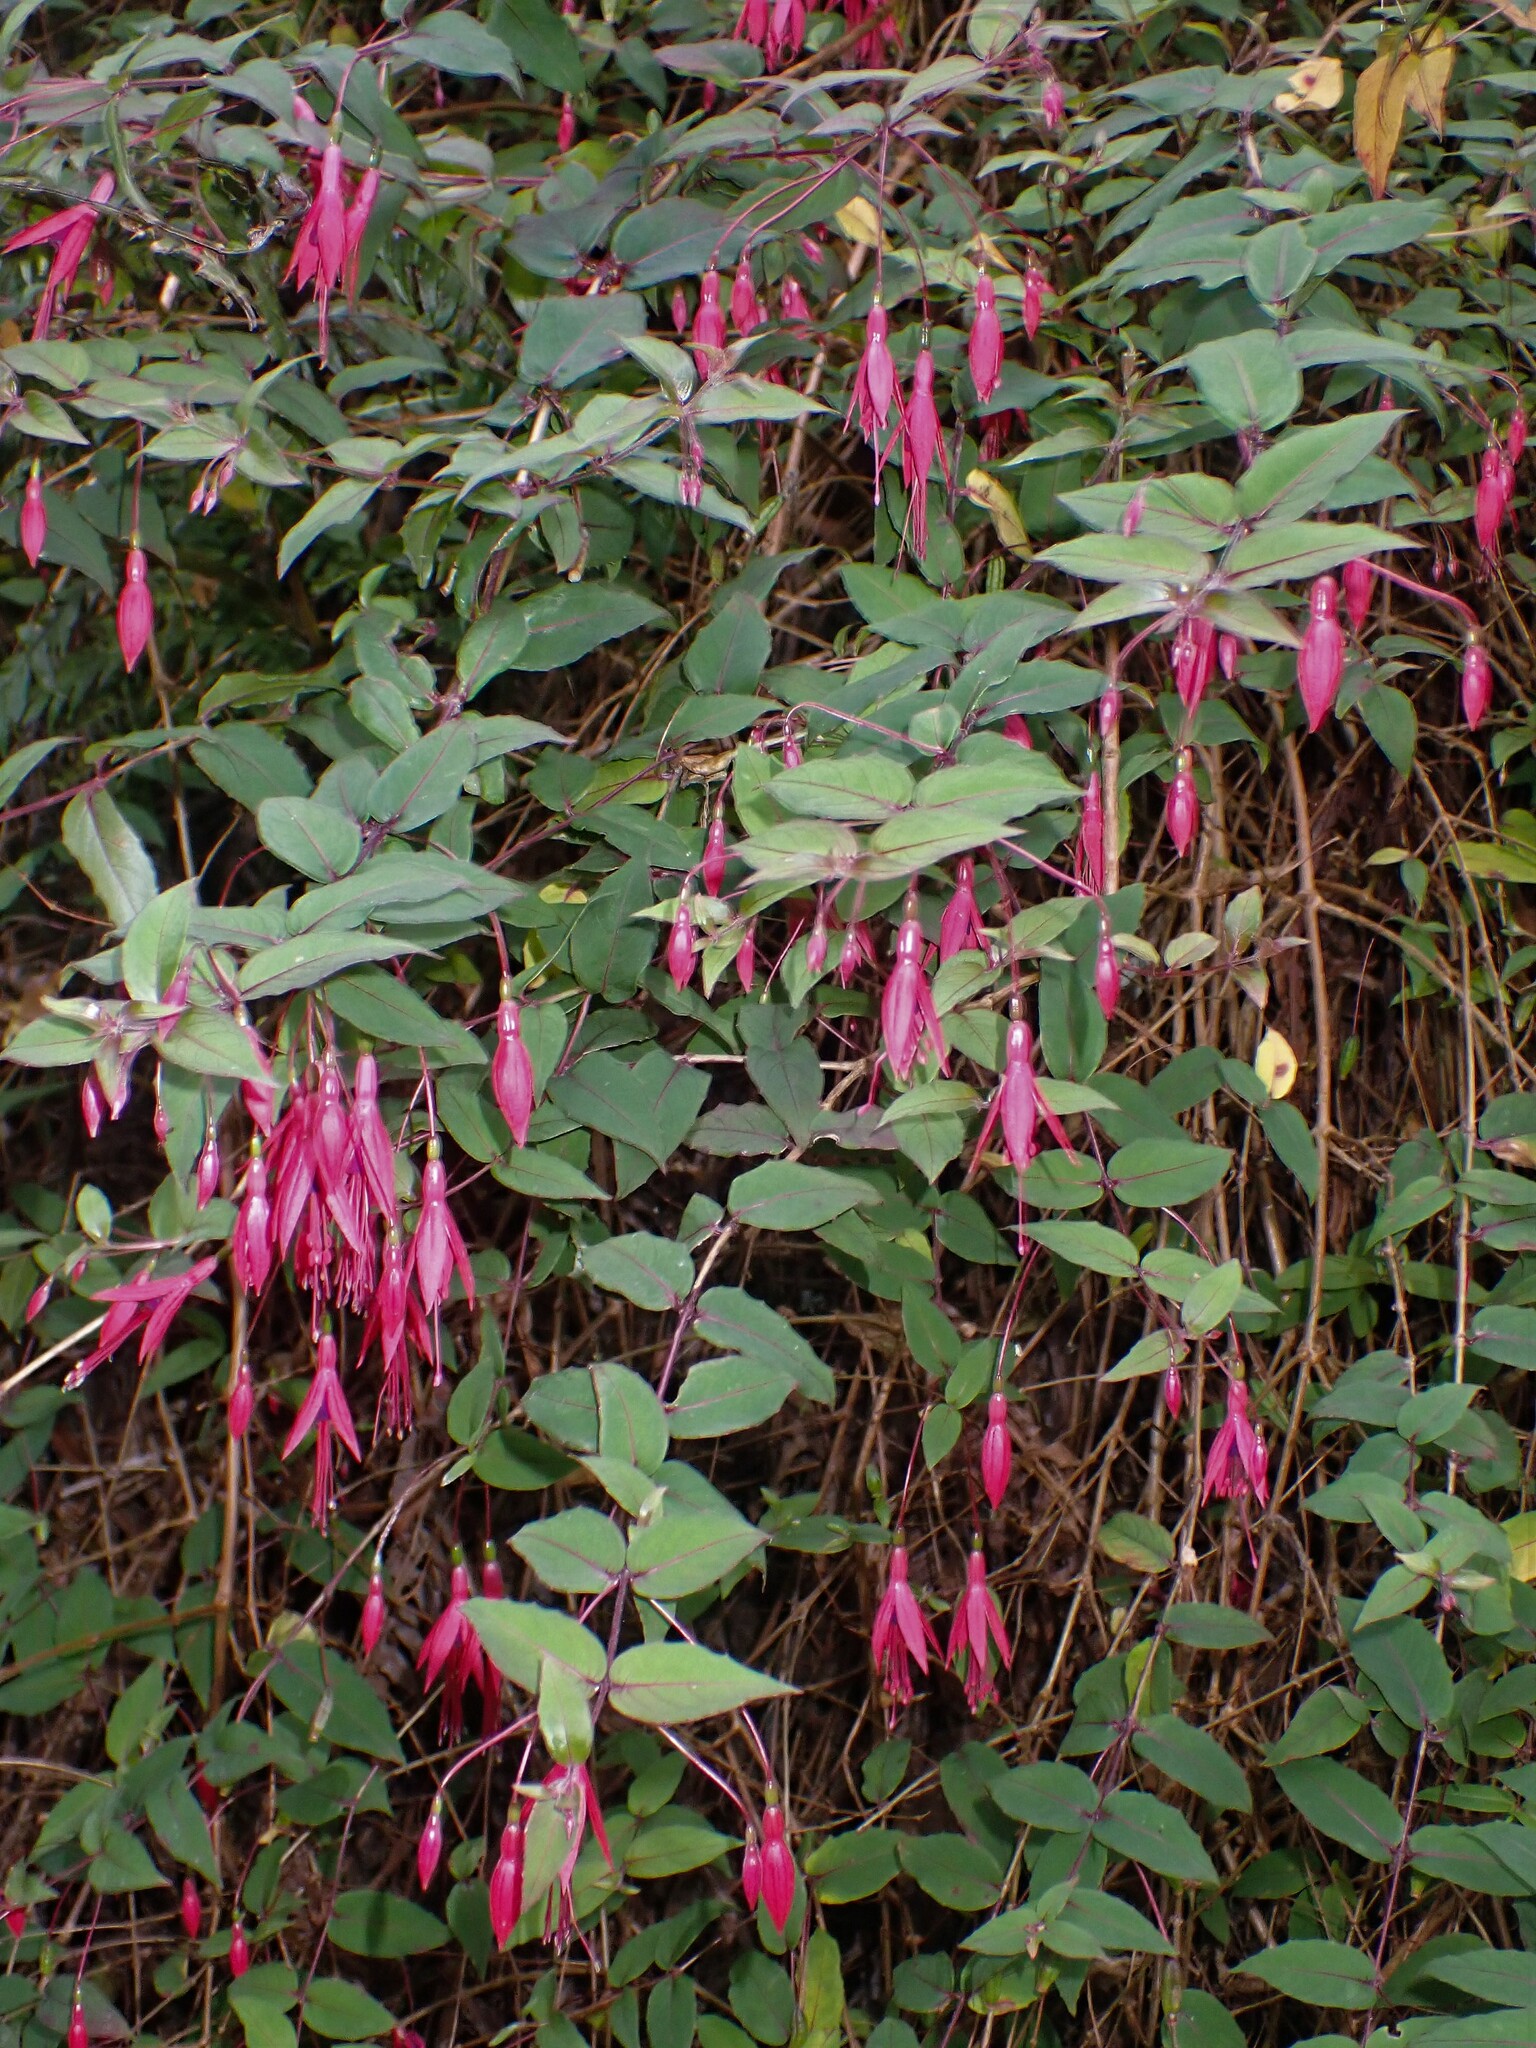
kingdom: Plantae
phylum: Tracheophyta
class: Magnoliopsida
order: Myrtales
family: Onagraceae
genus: Fuchsia
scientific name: Fuchsia magellanica
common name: Hardy fuchsia
